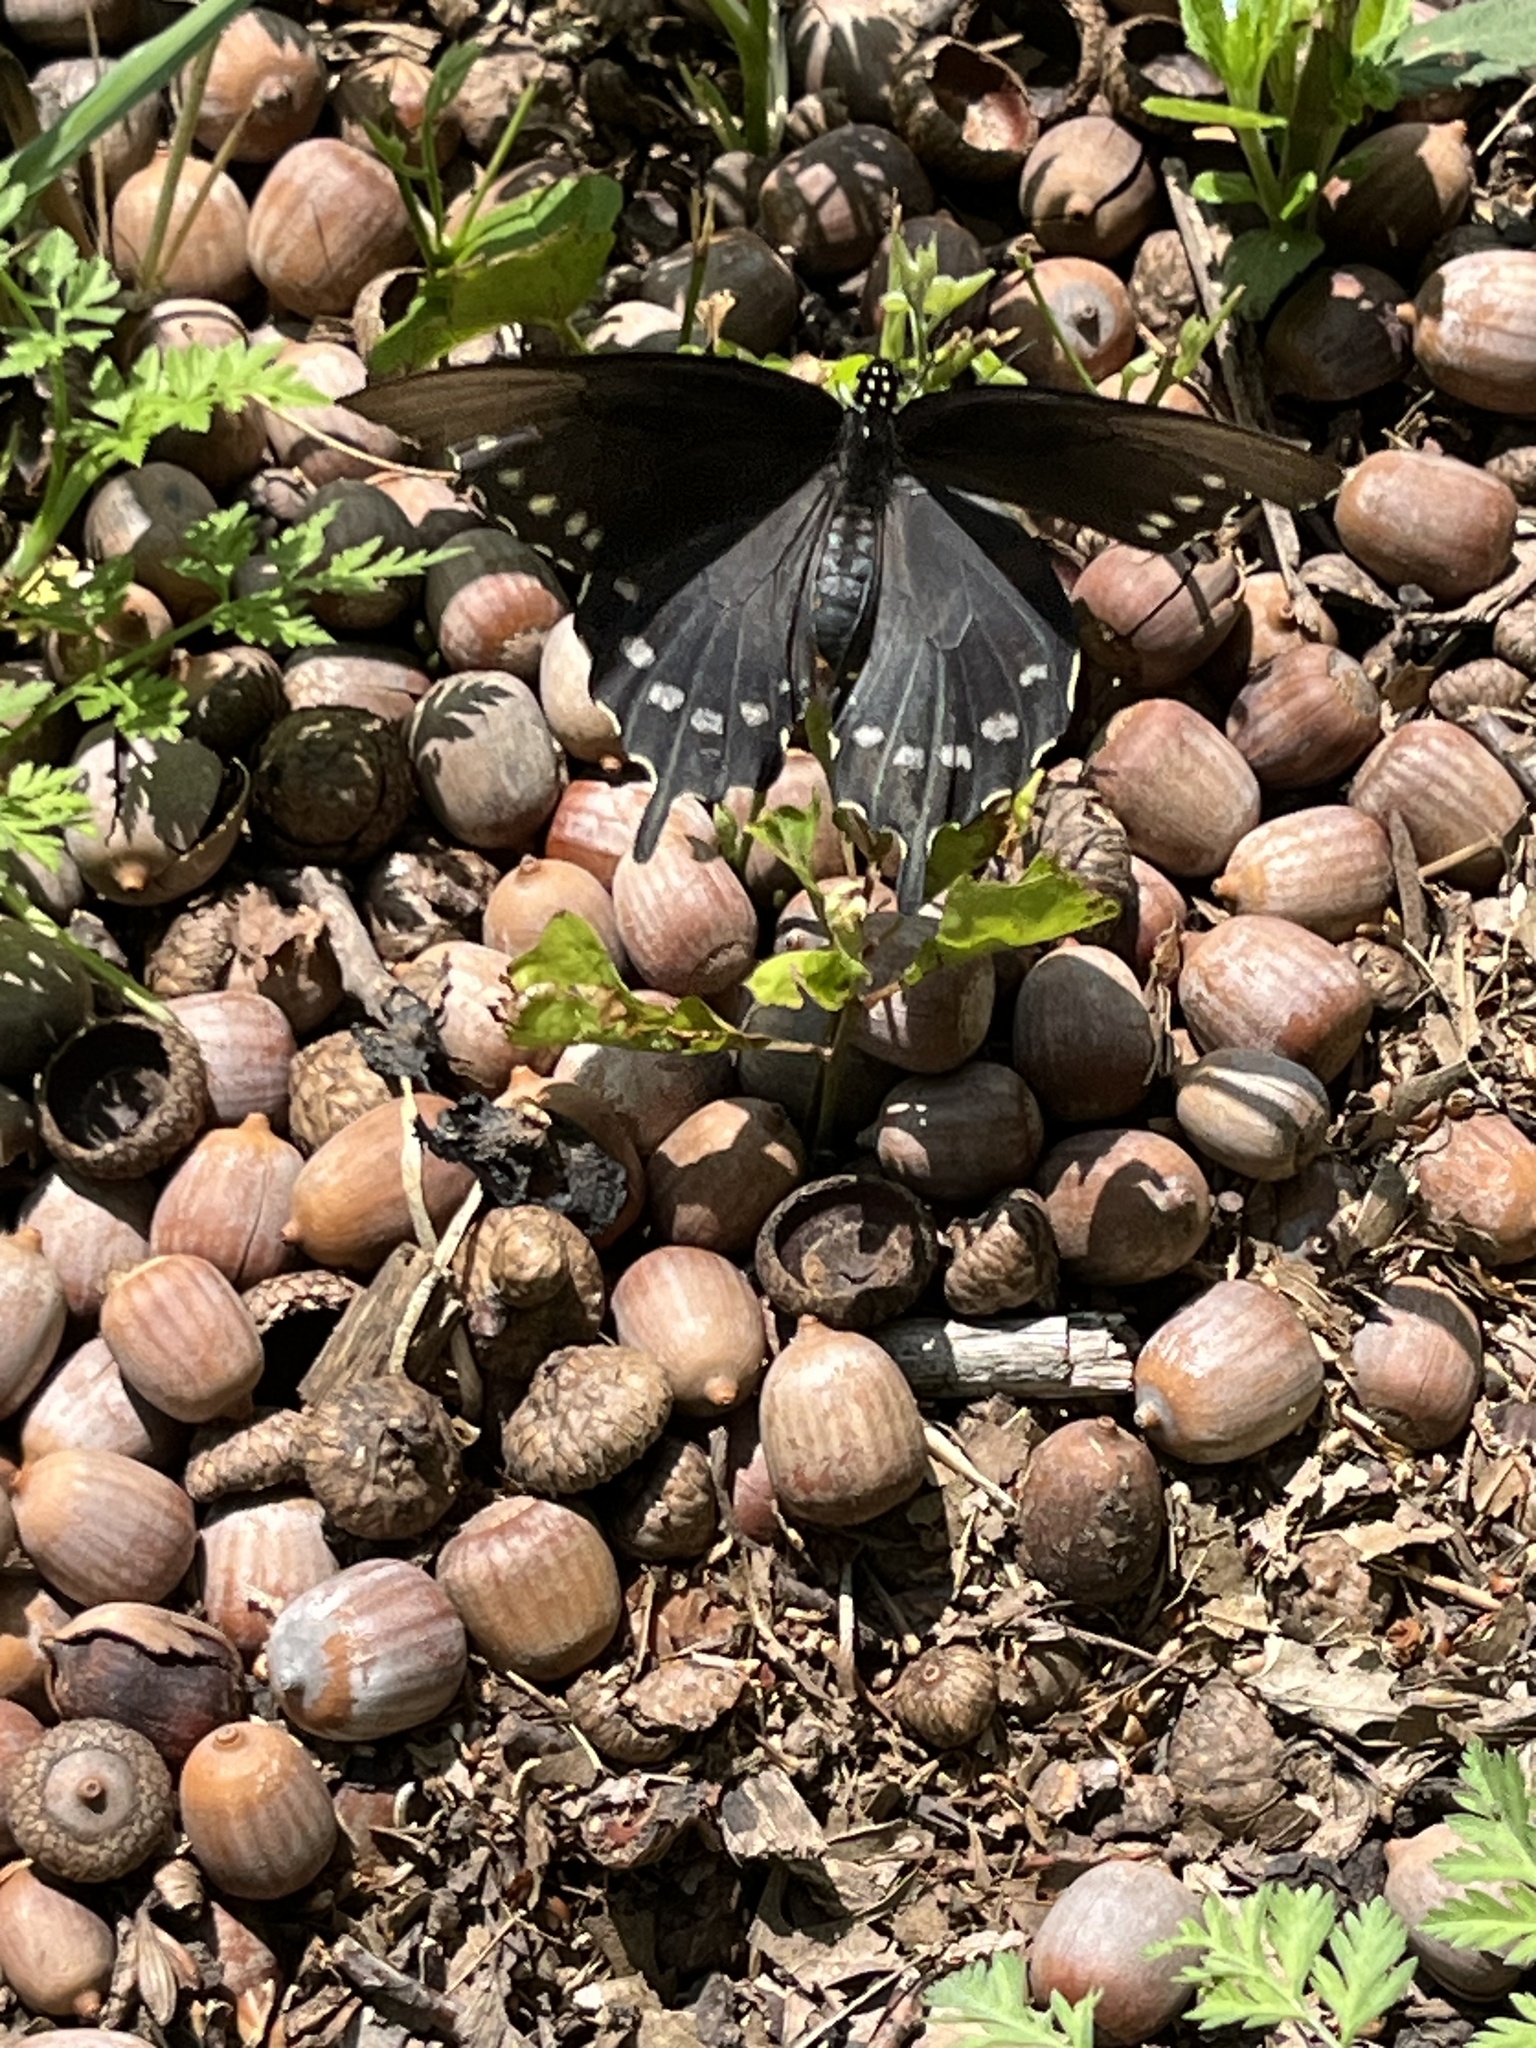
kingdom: Animalia
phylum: Arthropoda
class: Insecta
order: Lepidoptera
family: Papilionidae
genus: Battus
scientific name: Battus philenor
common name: Pipevine swallowtail
